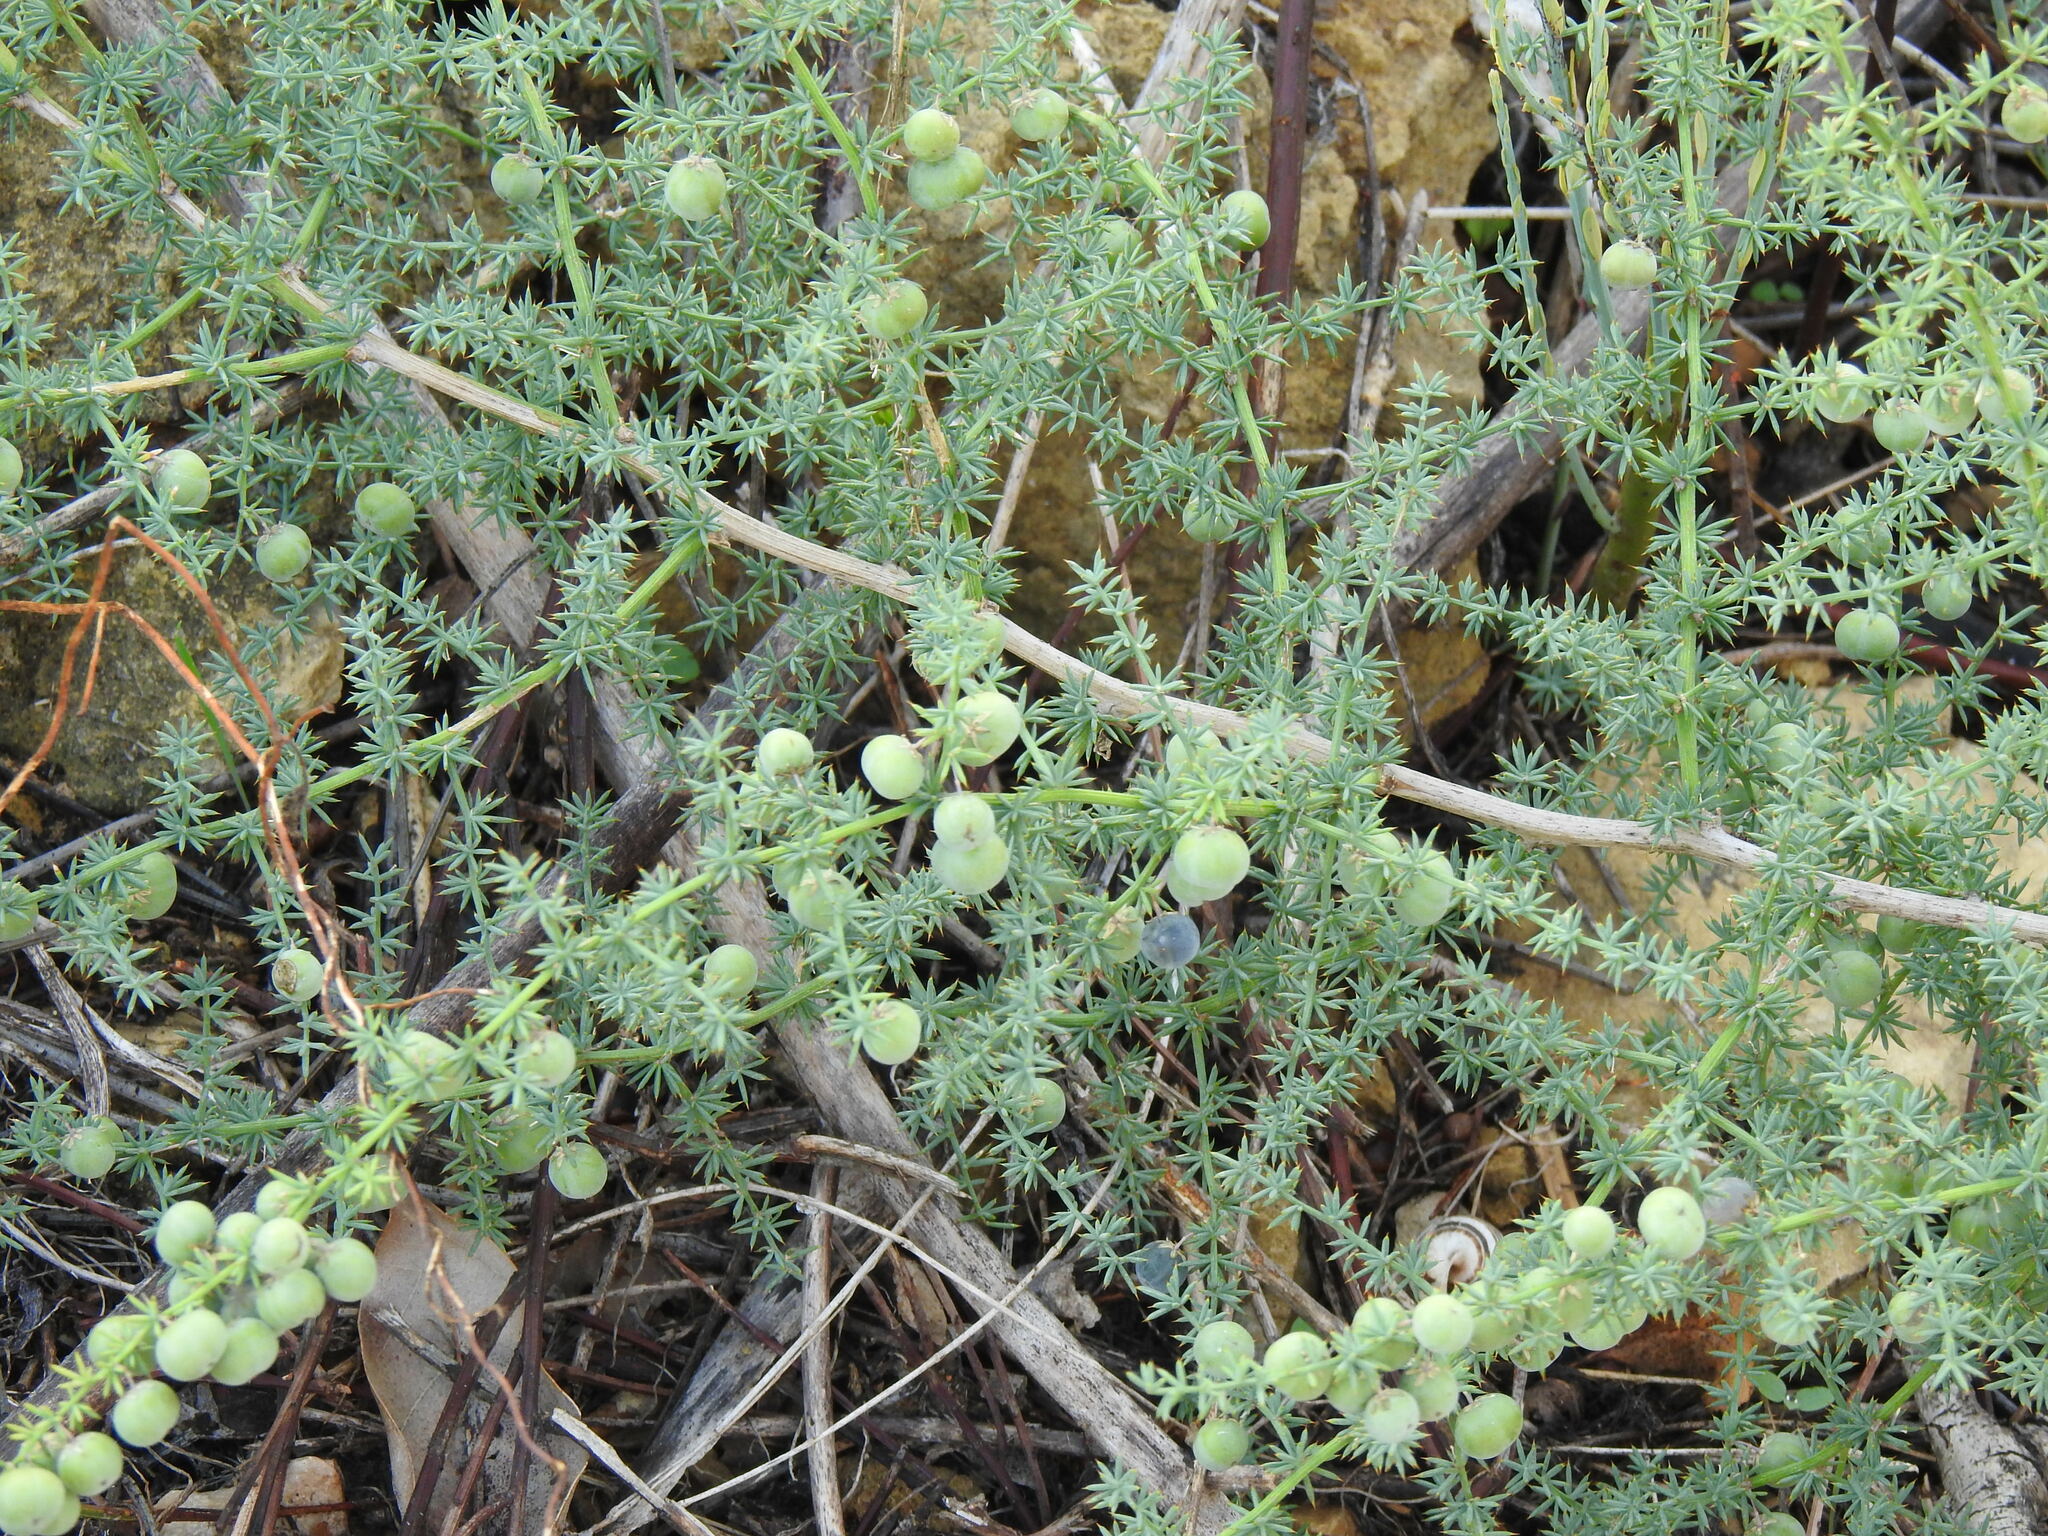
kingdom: Plantae
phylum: Tracheophyta
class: Liliopsida
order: Asparagales
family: Asparagaceae
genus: Asparagus
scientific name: Asparagus acutifolius
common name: Wild asparagus
